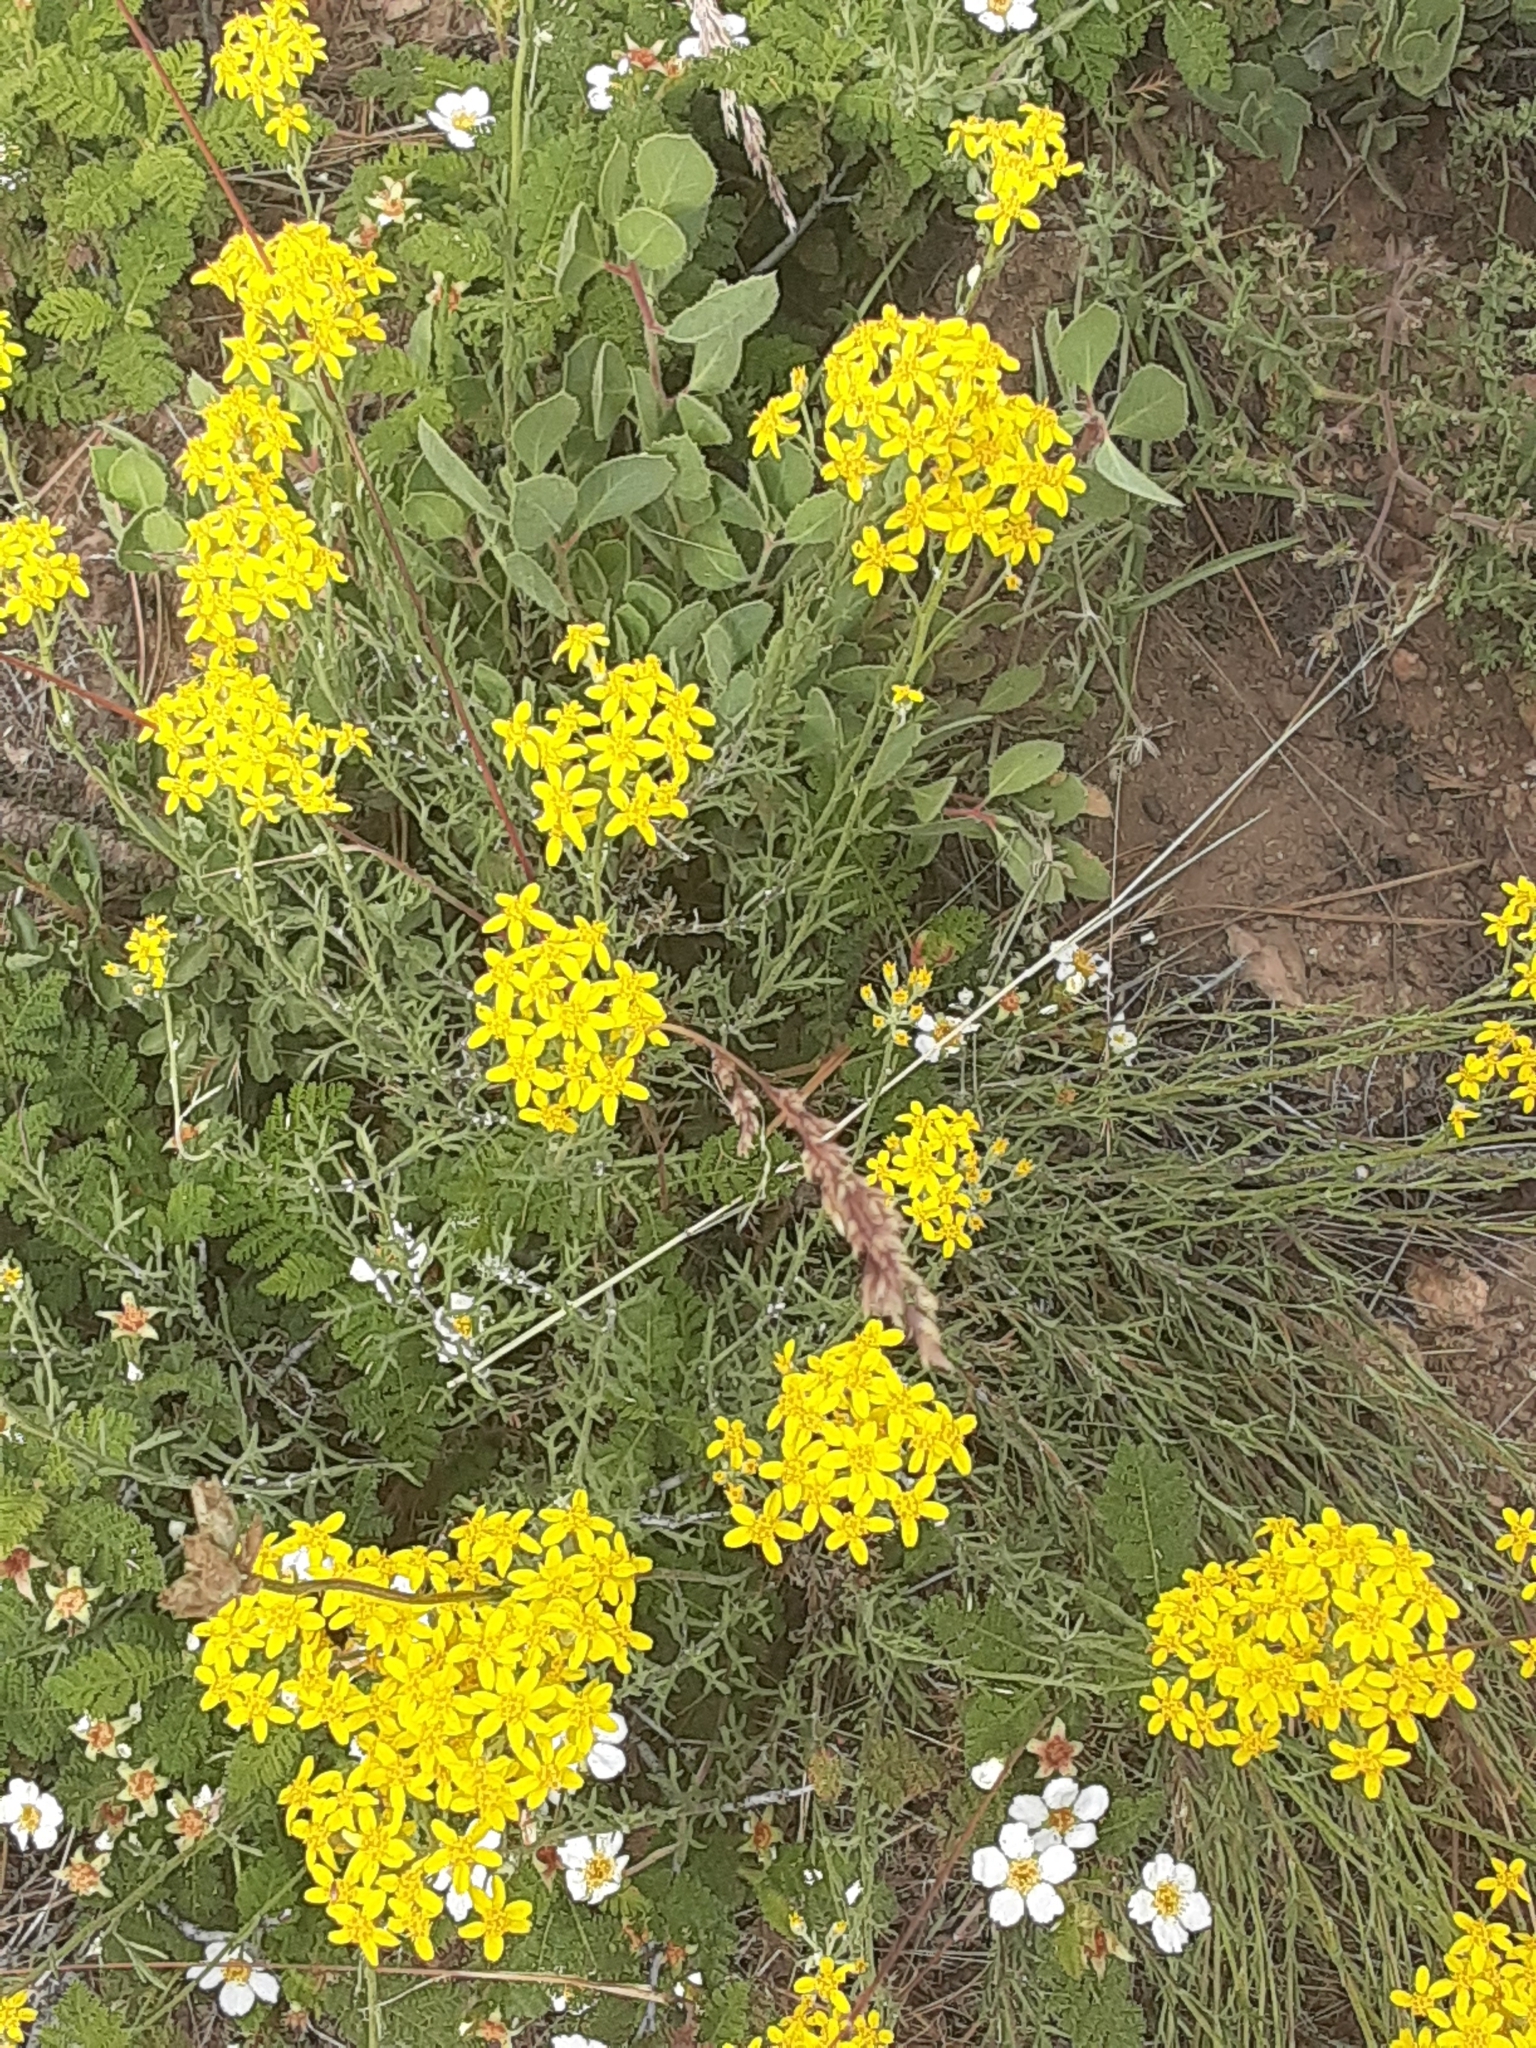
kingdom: Plantae
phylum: Tracheophyta
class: Magnoliopsida
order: Asterales
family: Asteraceae
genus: Eriophyllum
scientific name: Eriophyllum confertiflorum
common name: Golden-yarrow
